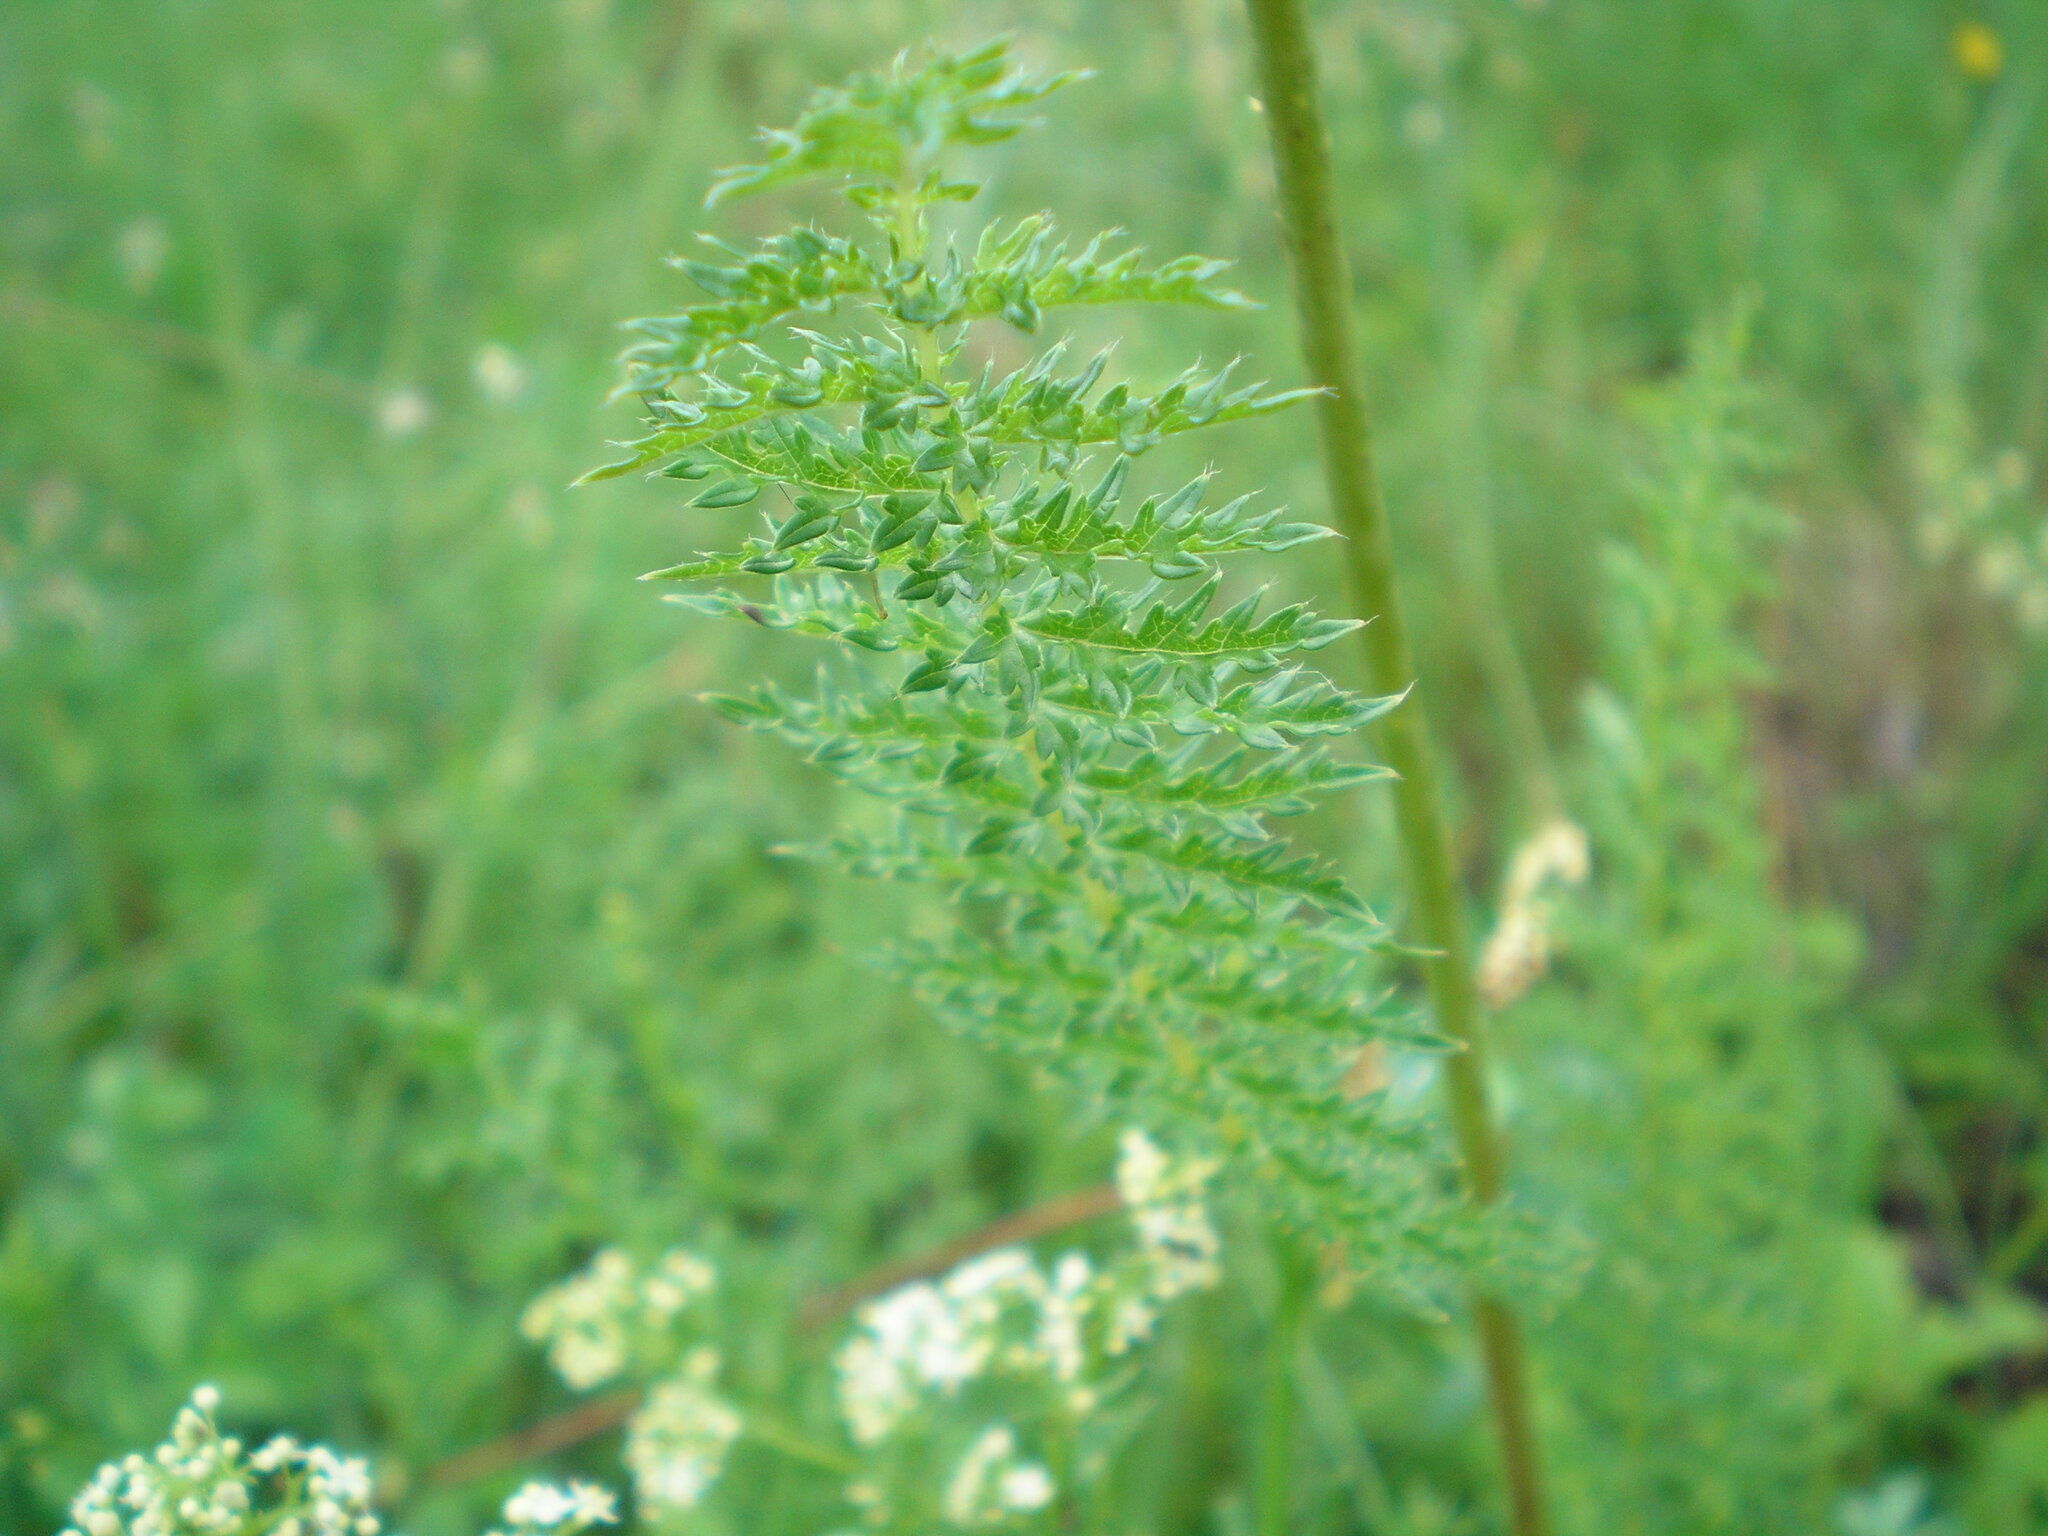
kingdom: Plantae
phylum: Tracheophyta
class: Magnoliopsida
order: Rosales
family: Rosaceae
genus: Filipendula
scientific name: Filipendula vulgaris
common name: Dropwort
